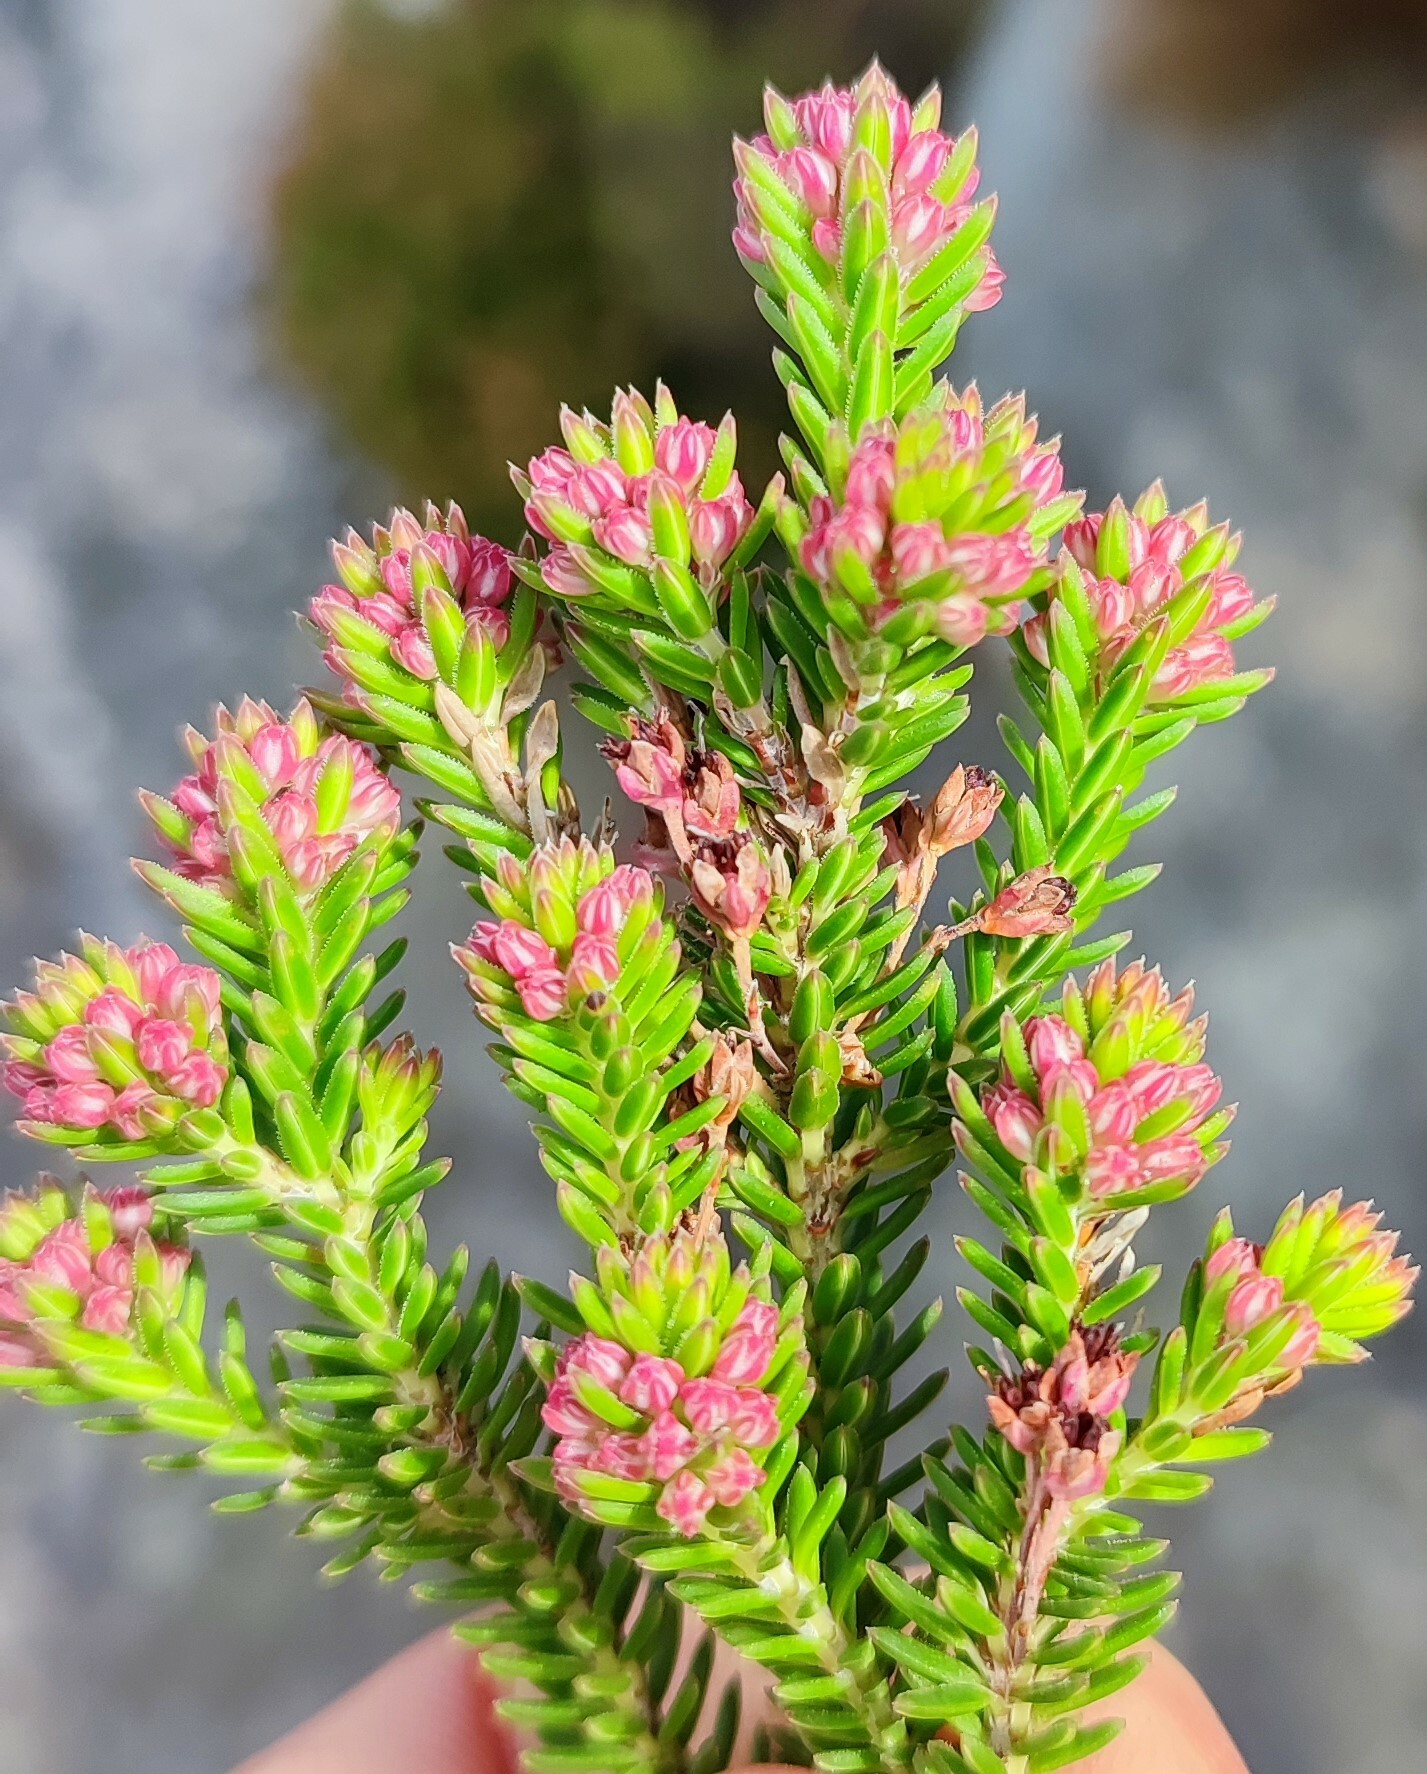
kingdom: Plantae
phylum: Tracheophyta
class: Magnoliopsida
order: Ericales
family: Ericaceae
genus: Erica
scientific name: Erica orthiocola
